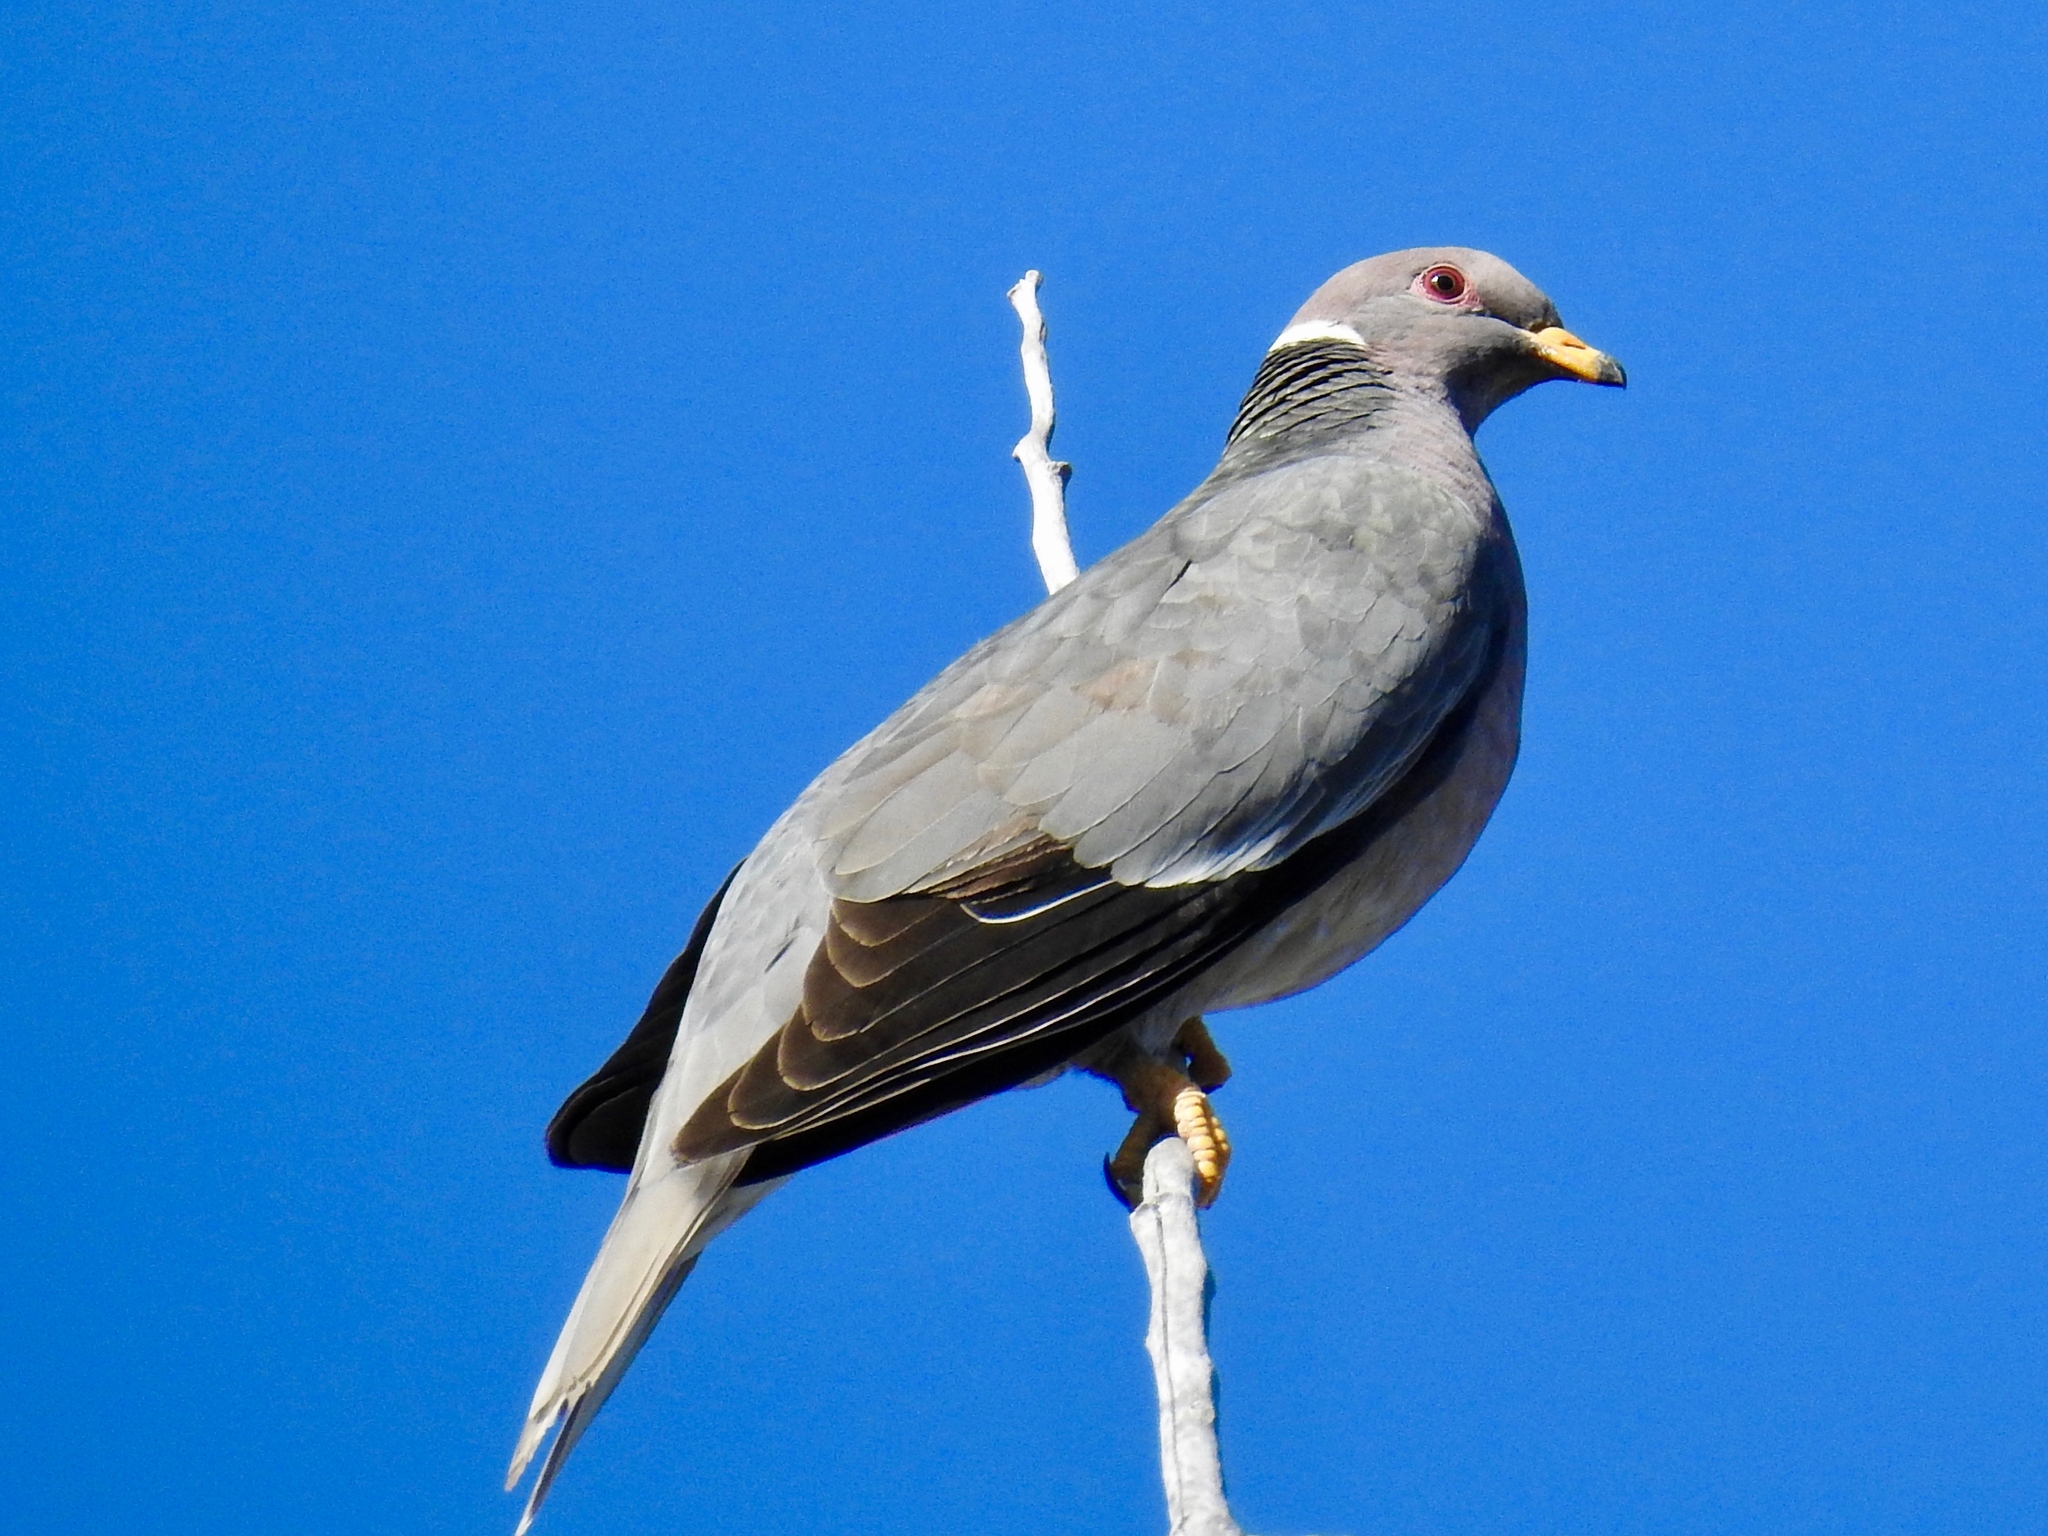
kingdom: Animalia
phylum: Chordata
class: Aves
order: Columbiformes
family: Columbidae
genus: Patagioenas
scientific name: Patagioenas fasciata
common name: Band-tailed pigeon
